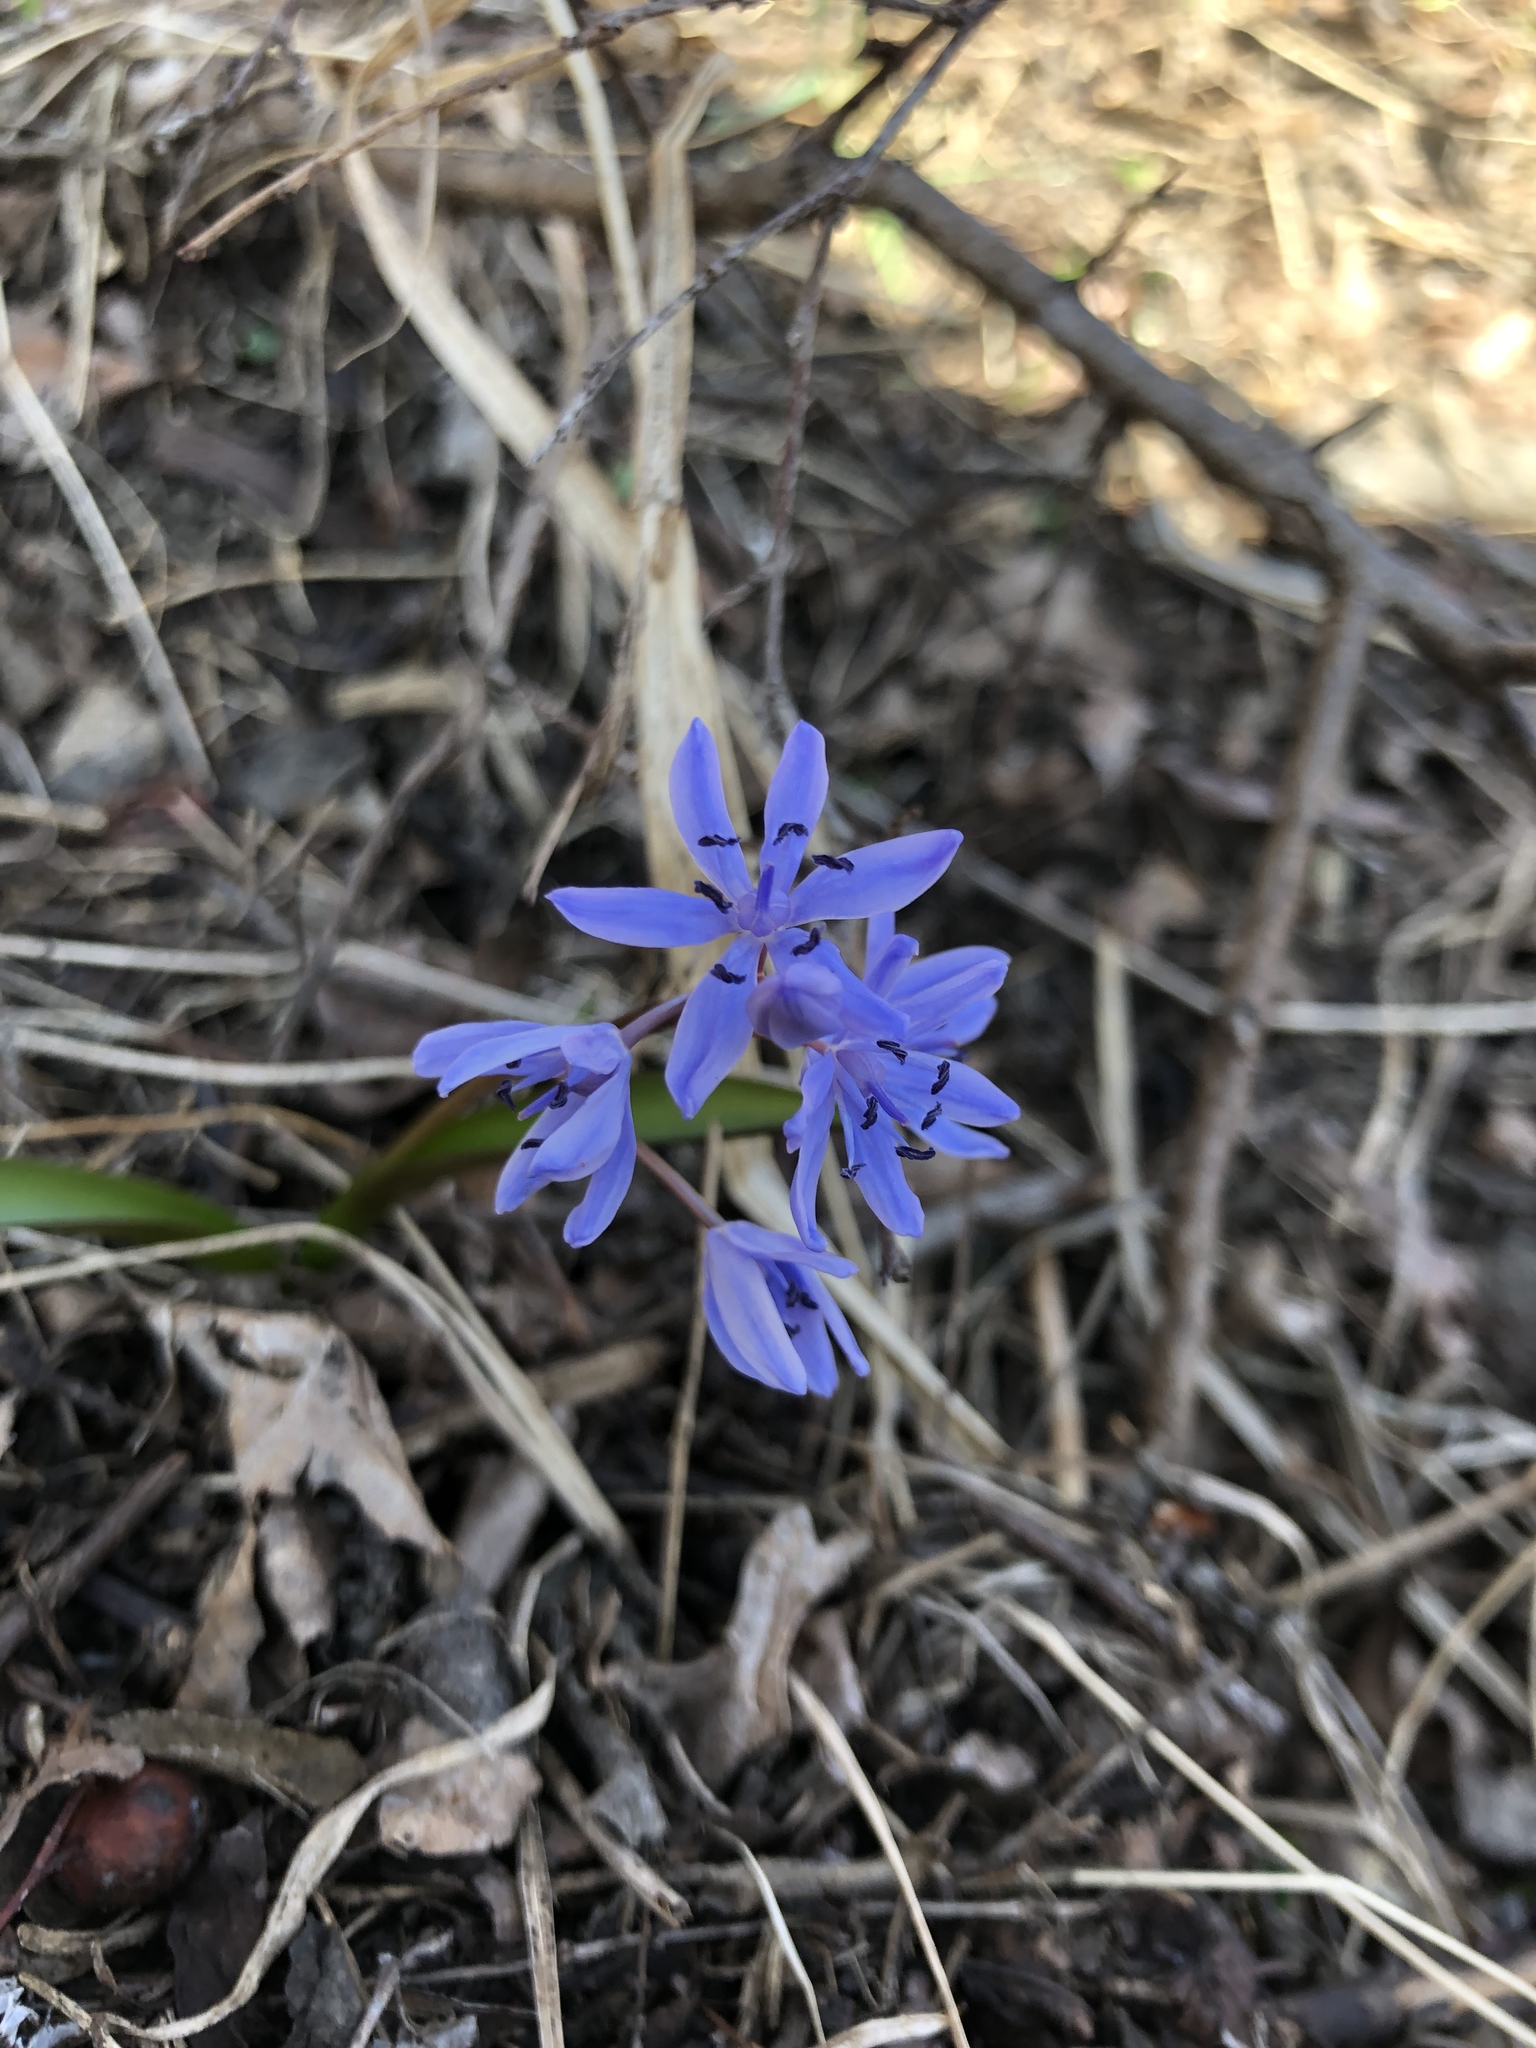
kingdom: Plantae
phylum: Tracheophyta
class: Liliopsida
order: Asparagales
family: Asparagaceae
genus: Scilla
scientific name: Scilla bifolia
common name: Alpine squill
